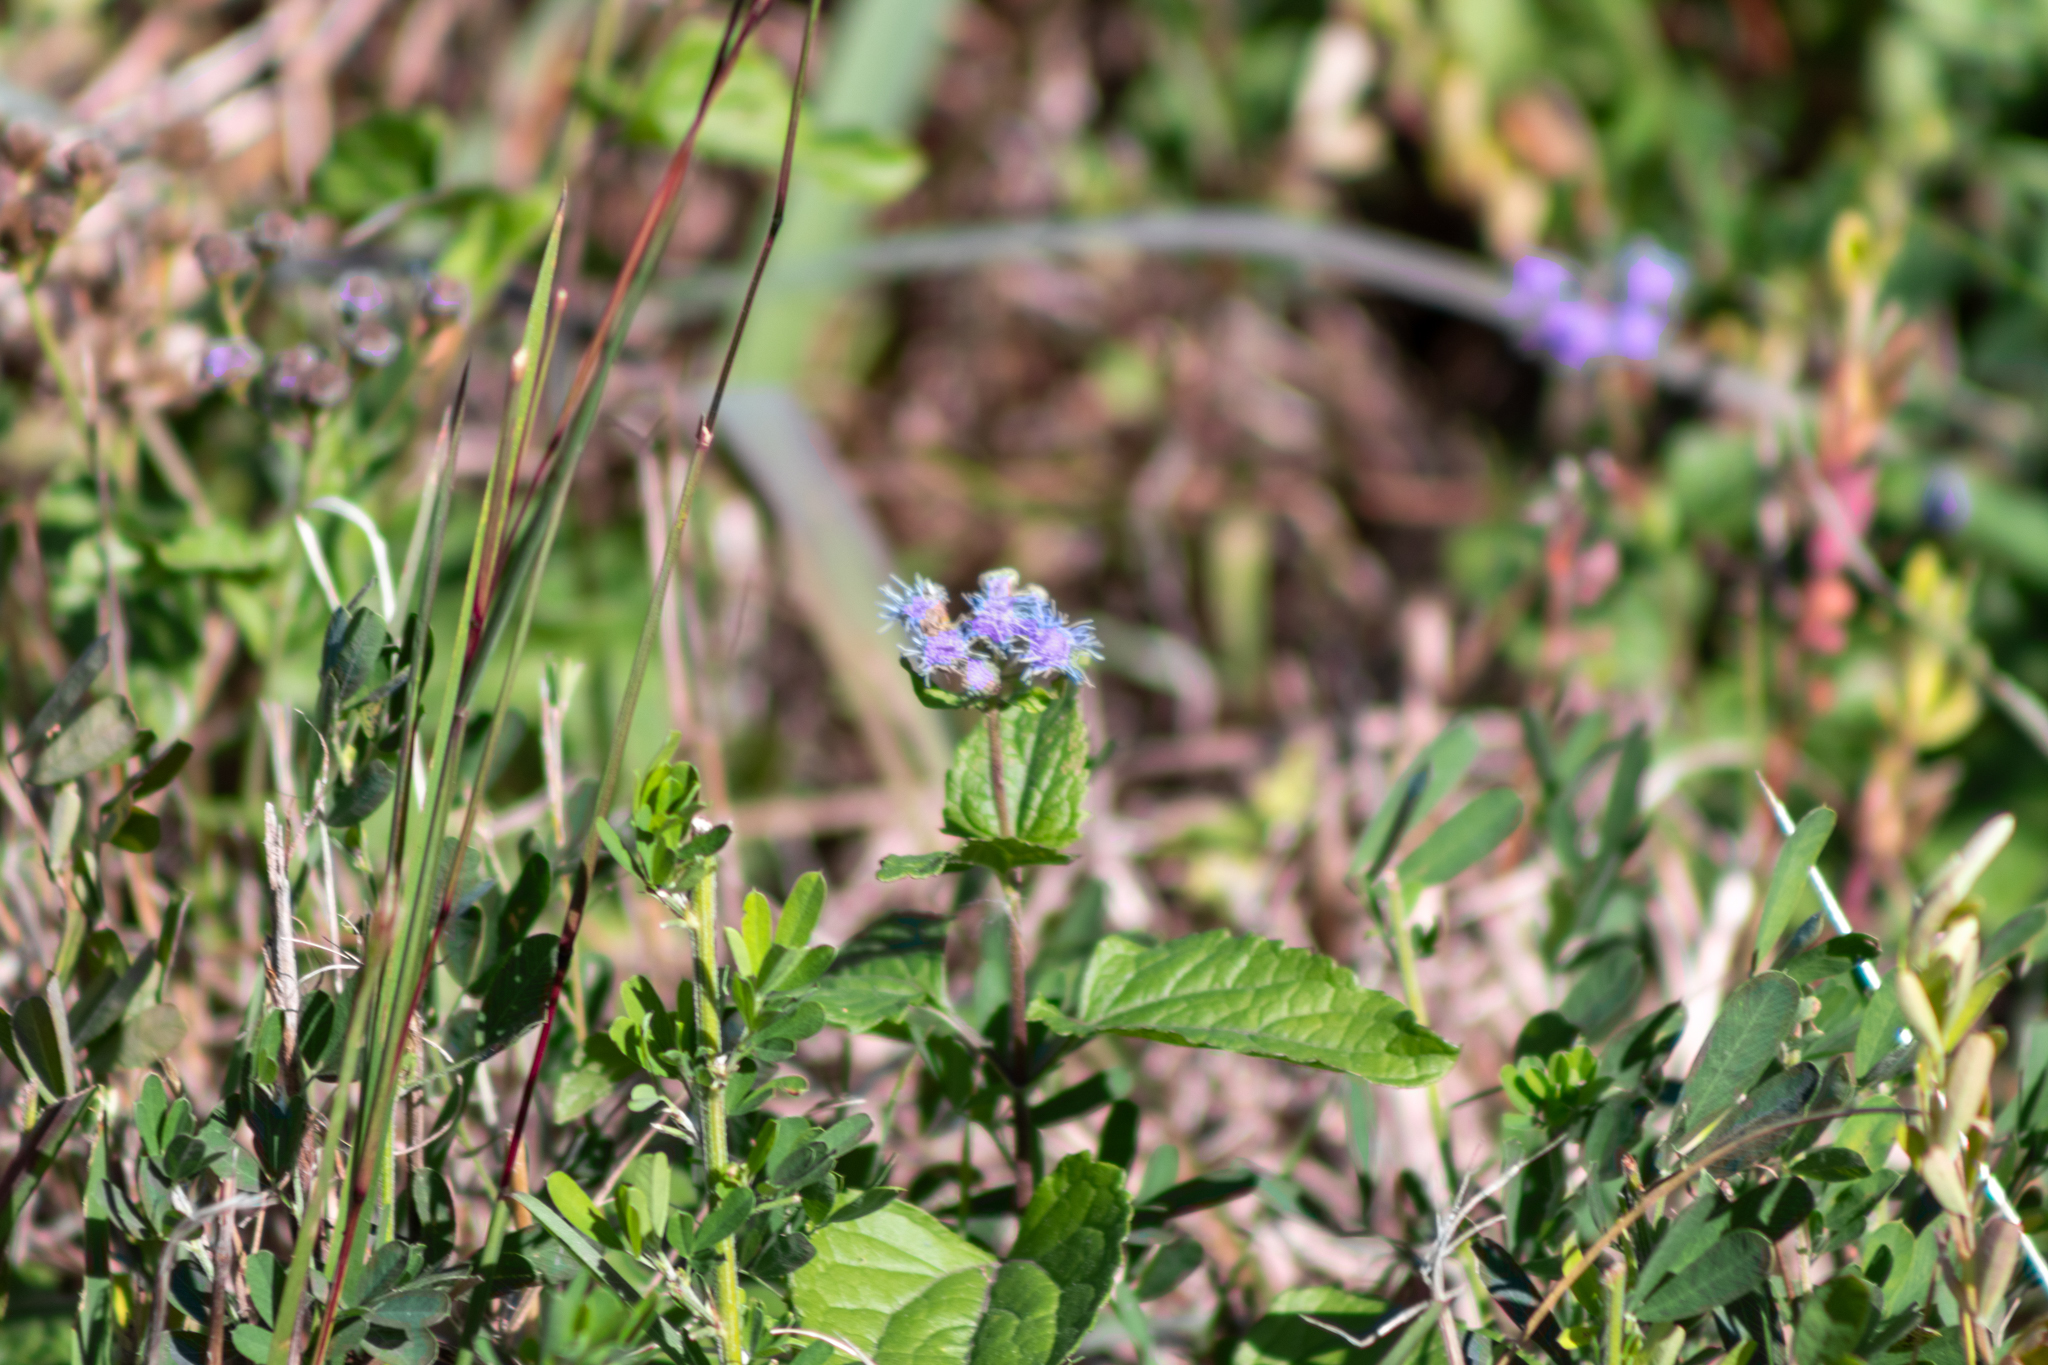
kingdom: Plantae
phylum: Tracheophyta
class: Magnoliopsida
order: Asterales
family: Asteraceae
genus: Conoclinium
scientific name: Conoclinium coelestinum
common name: Blue mistflower
